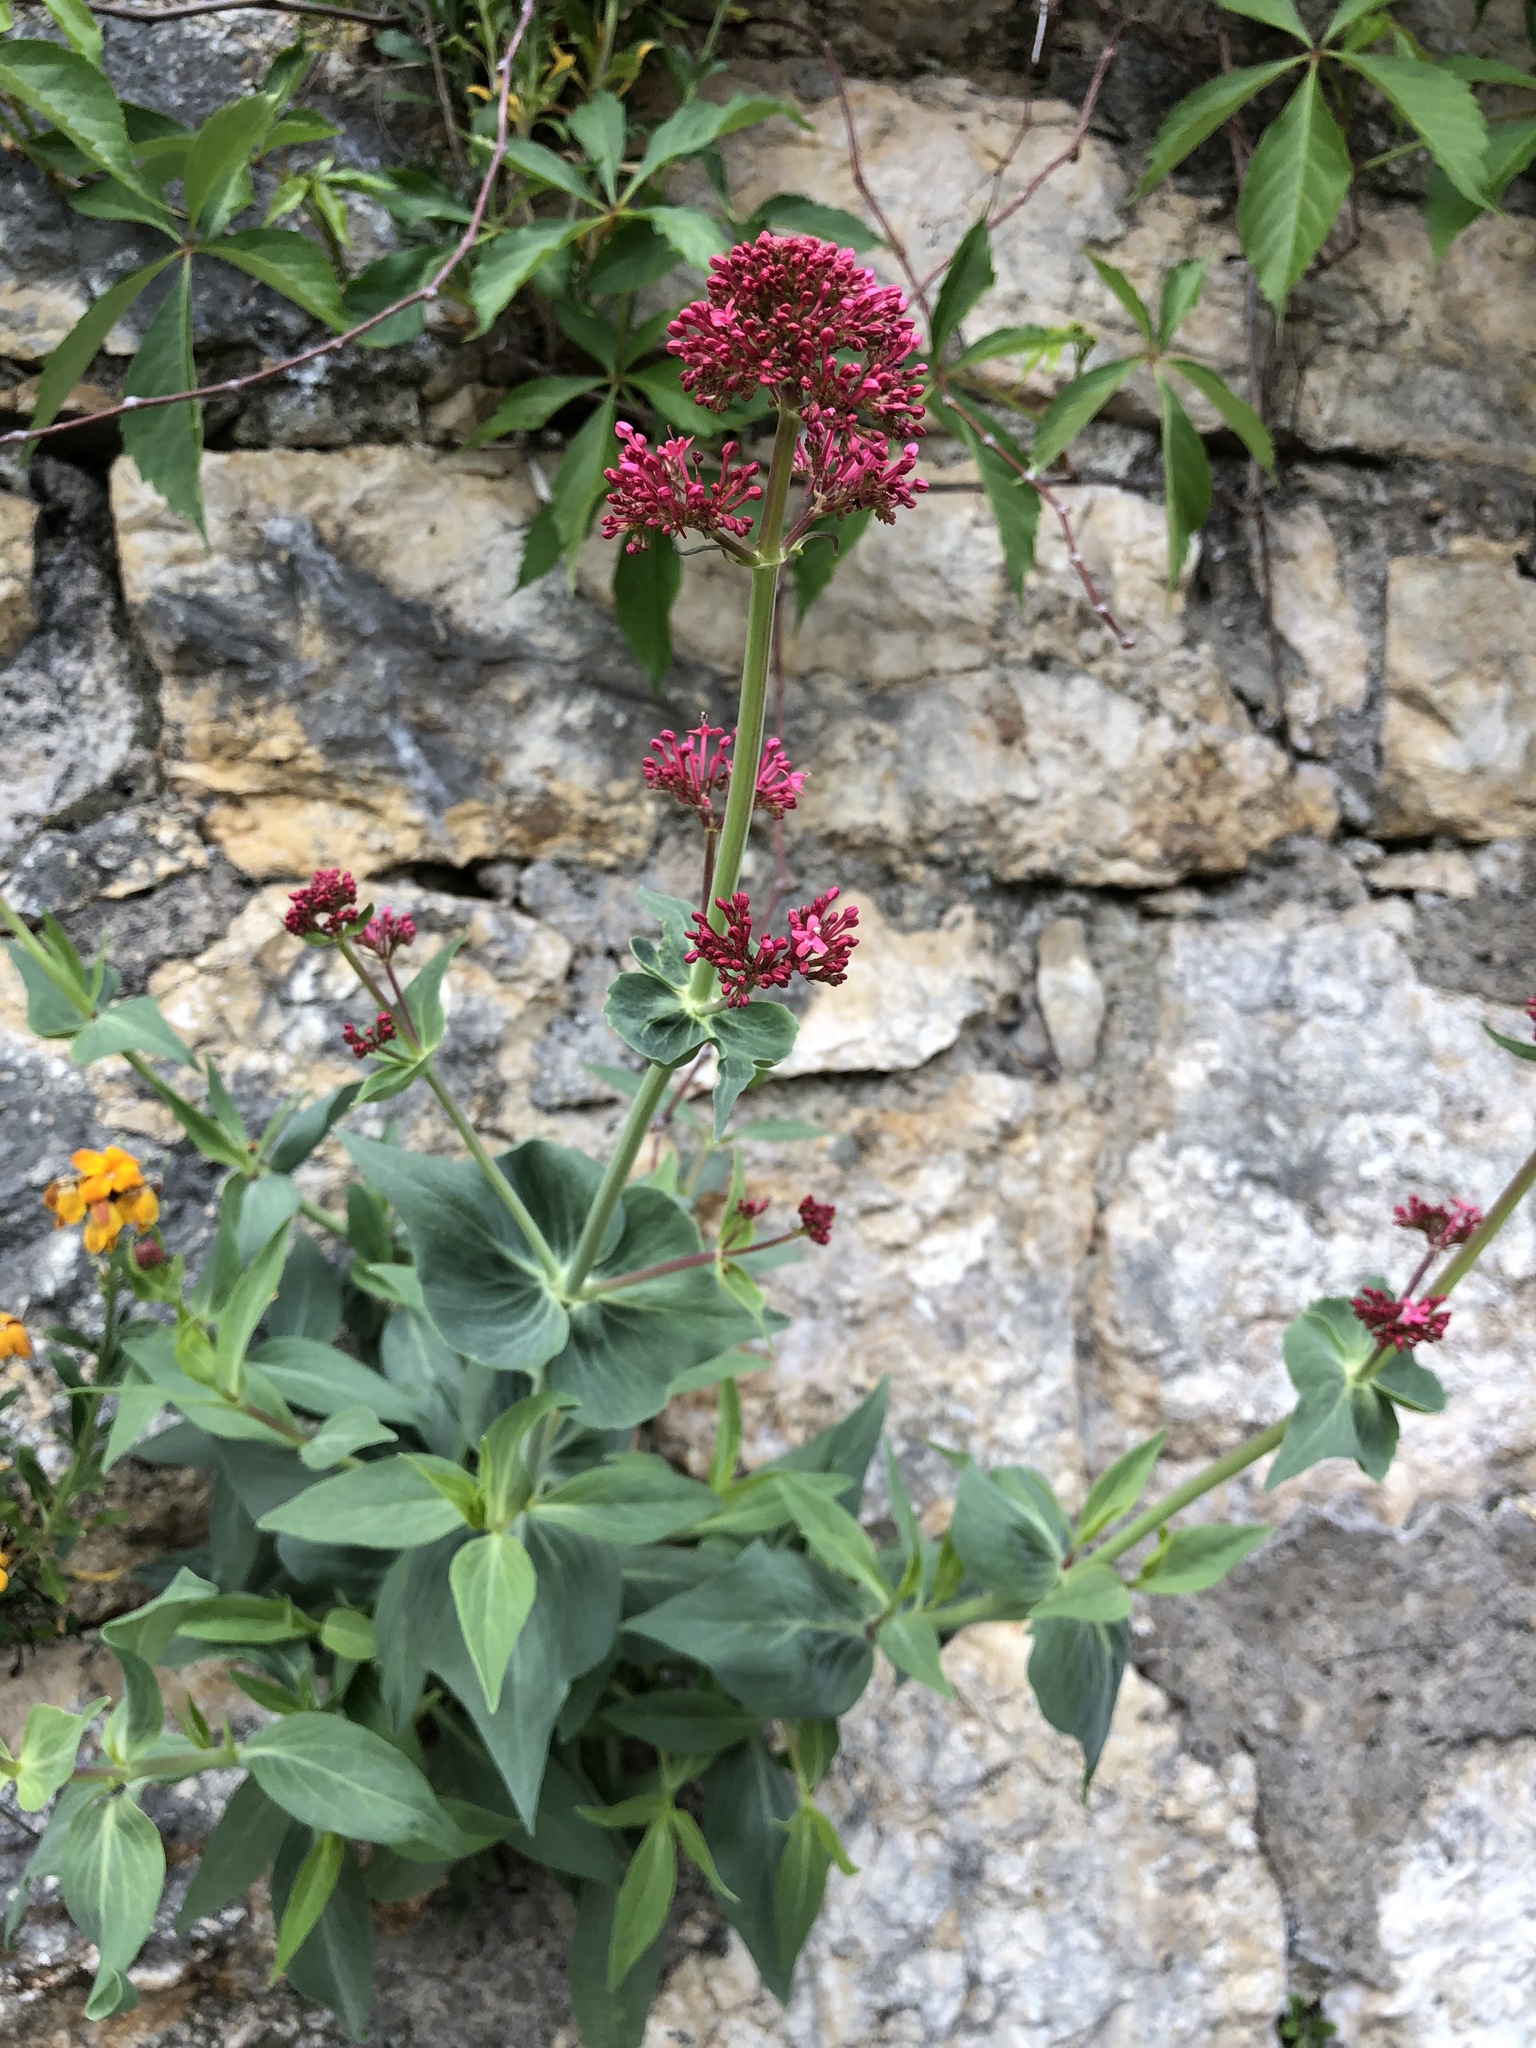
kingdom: Plantae
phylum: Tracheophyta
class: Magnoliopsida
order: Dipsacales
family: Caprifoliaceae
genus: Centranthus
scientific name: Centranthus ruber
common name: Red valerian
